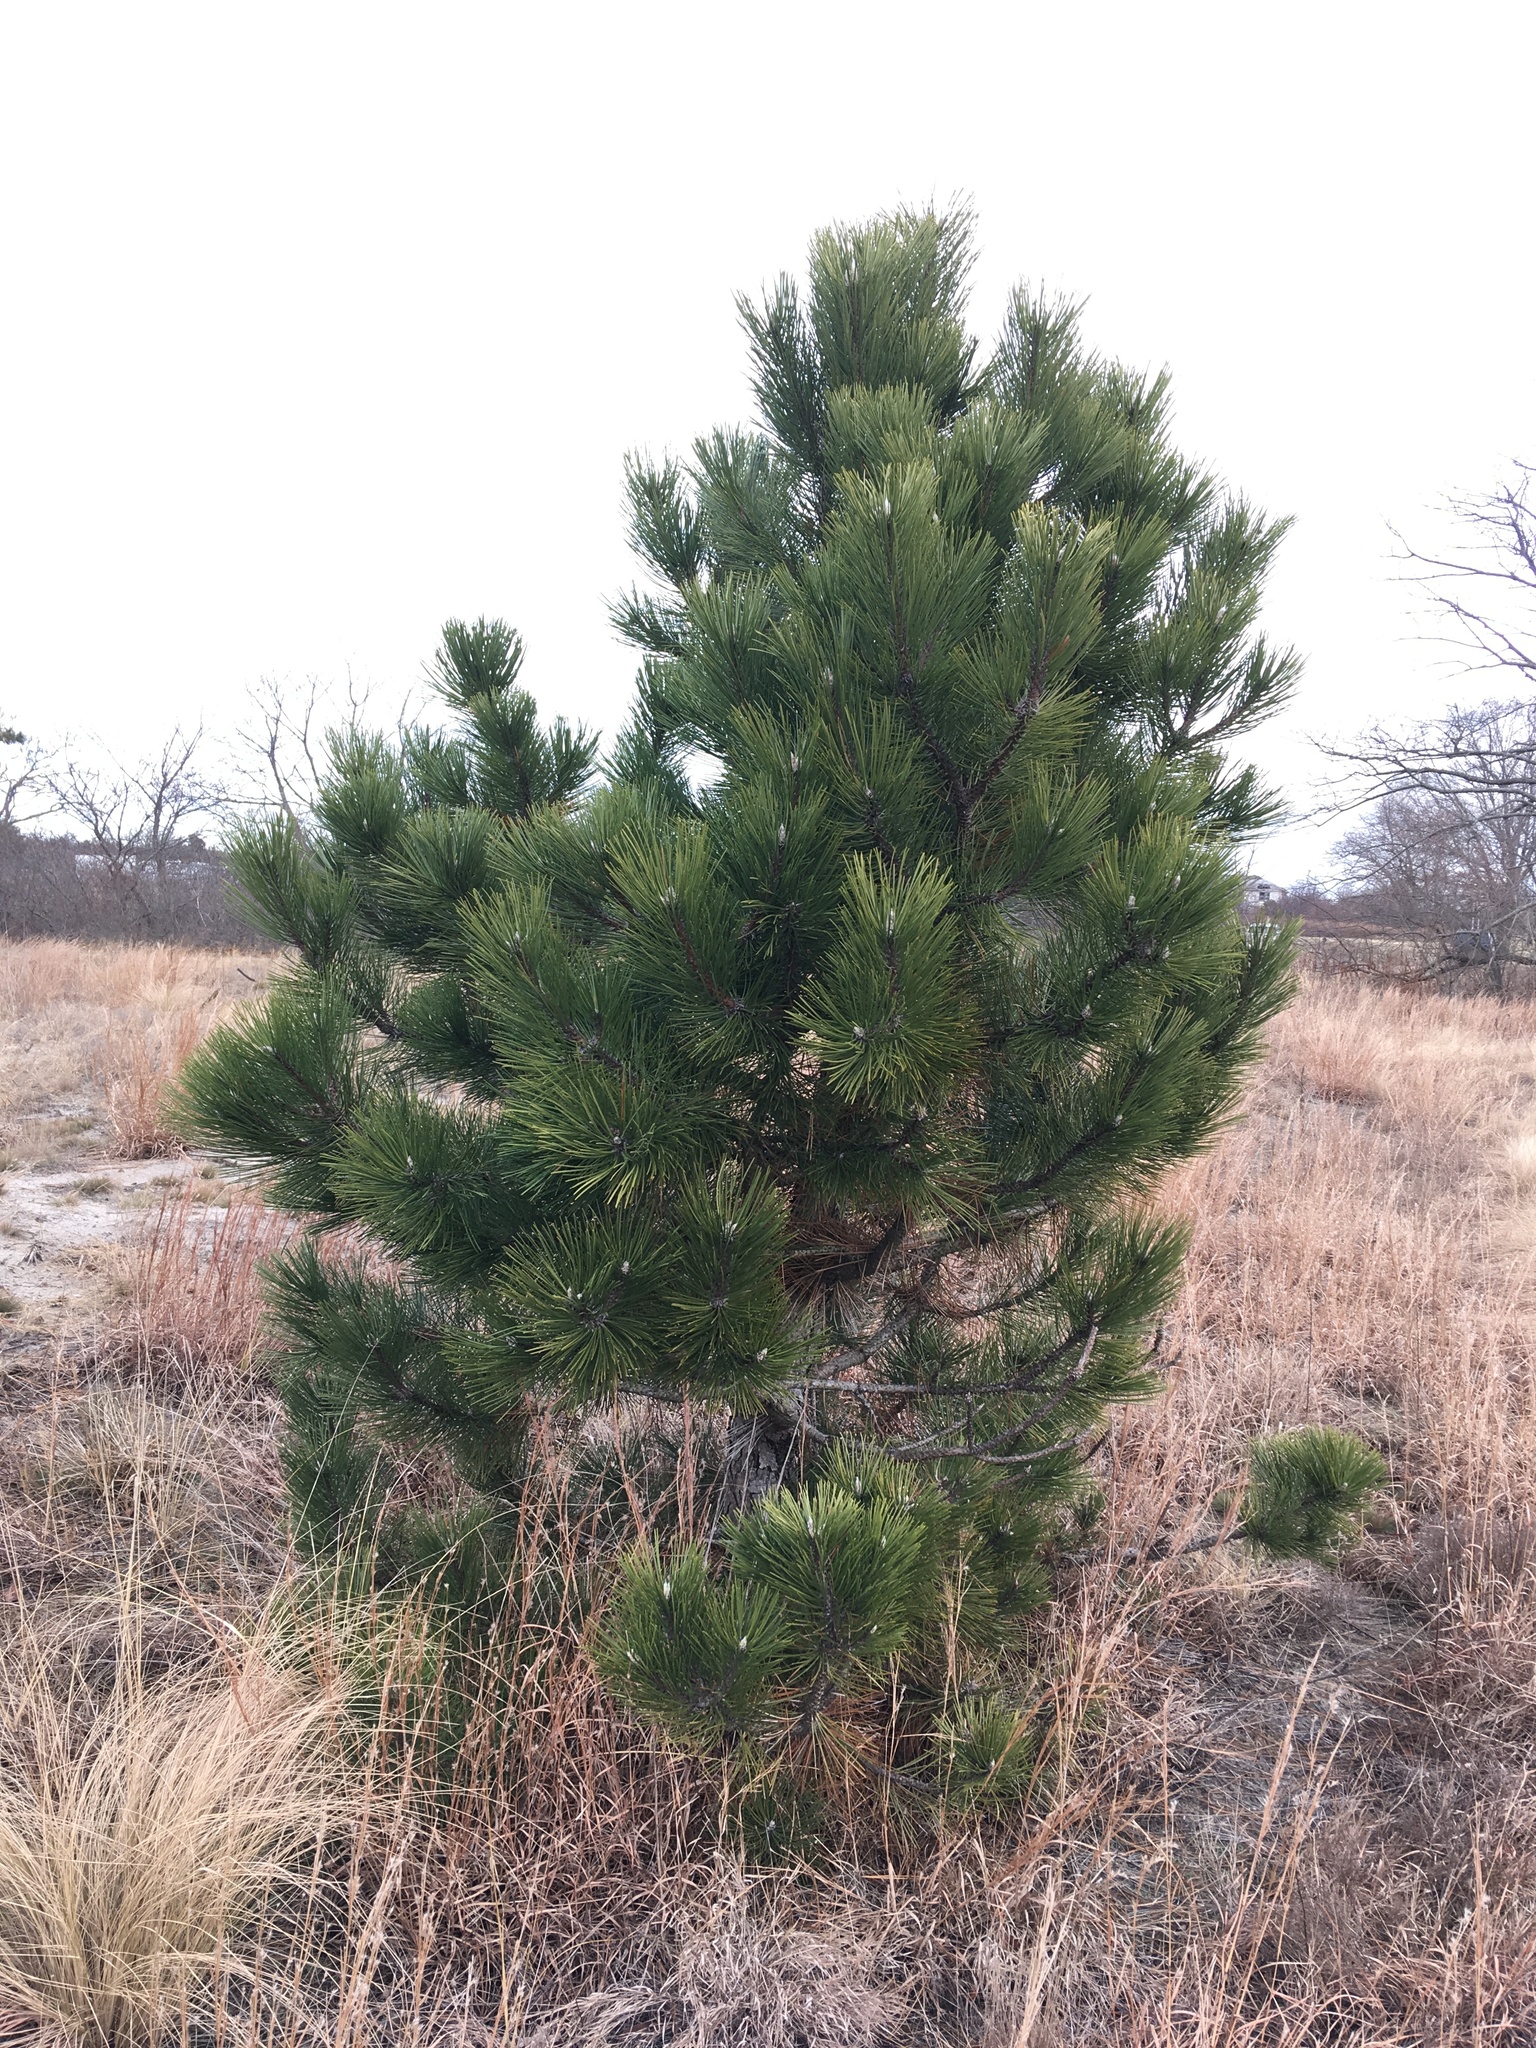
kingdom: Plantae
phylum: Tracheophyta
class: Pinopsida
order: Pinales
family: Pinaceae
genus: Pinus
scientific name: Pinus resinosa
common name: Norway pine
